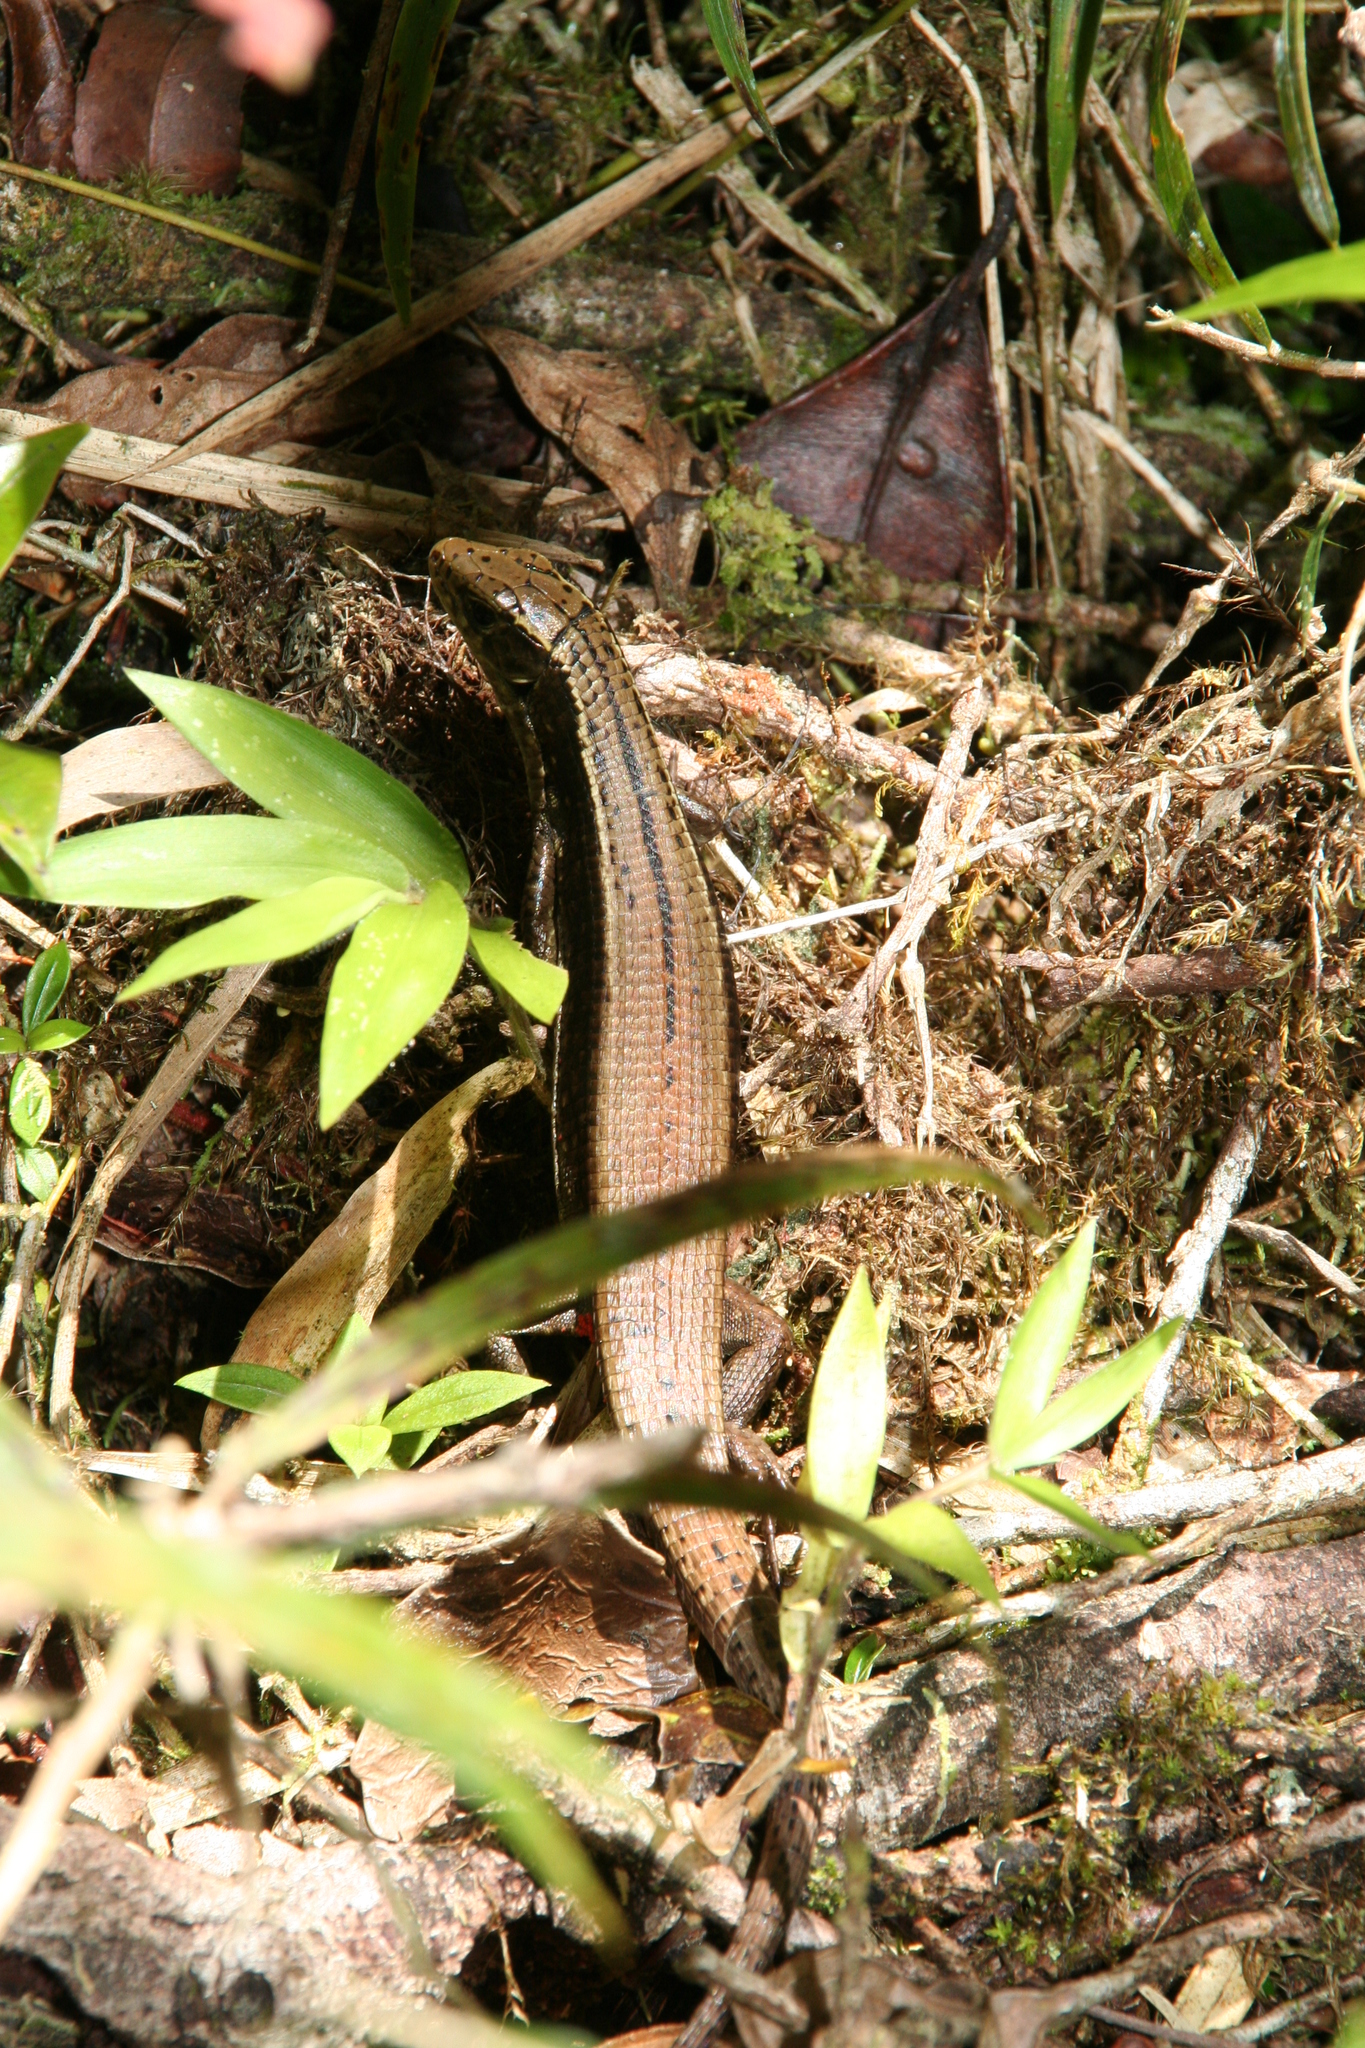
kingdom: Animalia
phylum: Chordata
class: Squamata
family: Gerrhosauridae
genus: Zonosaurus
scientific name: Zonosaurus madagascariensis
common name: Madagascar girdled lizard
